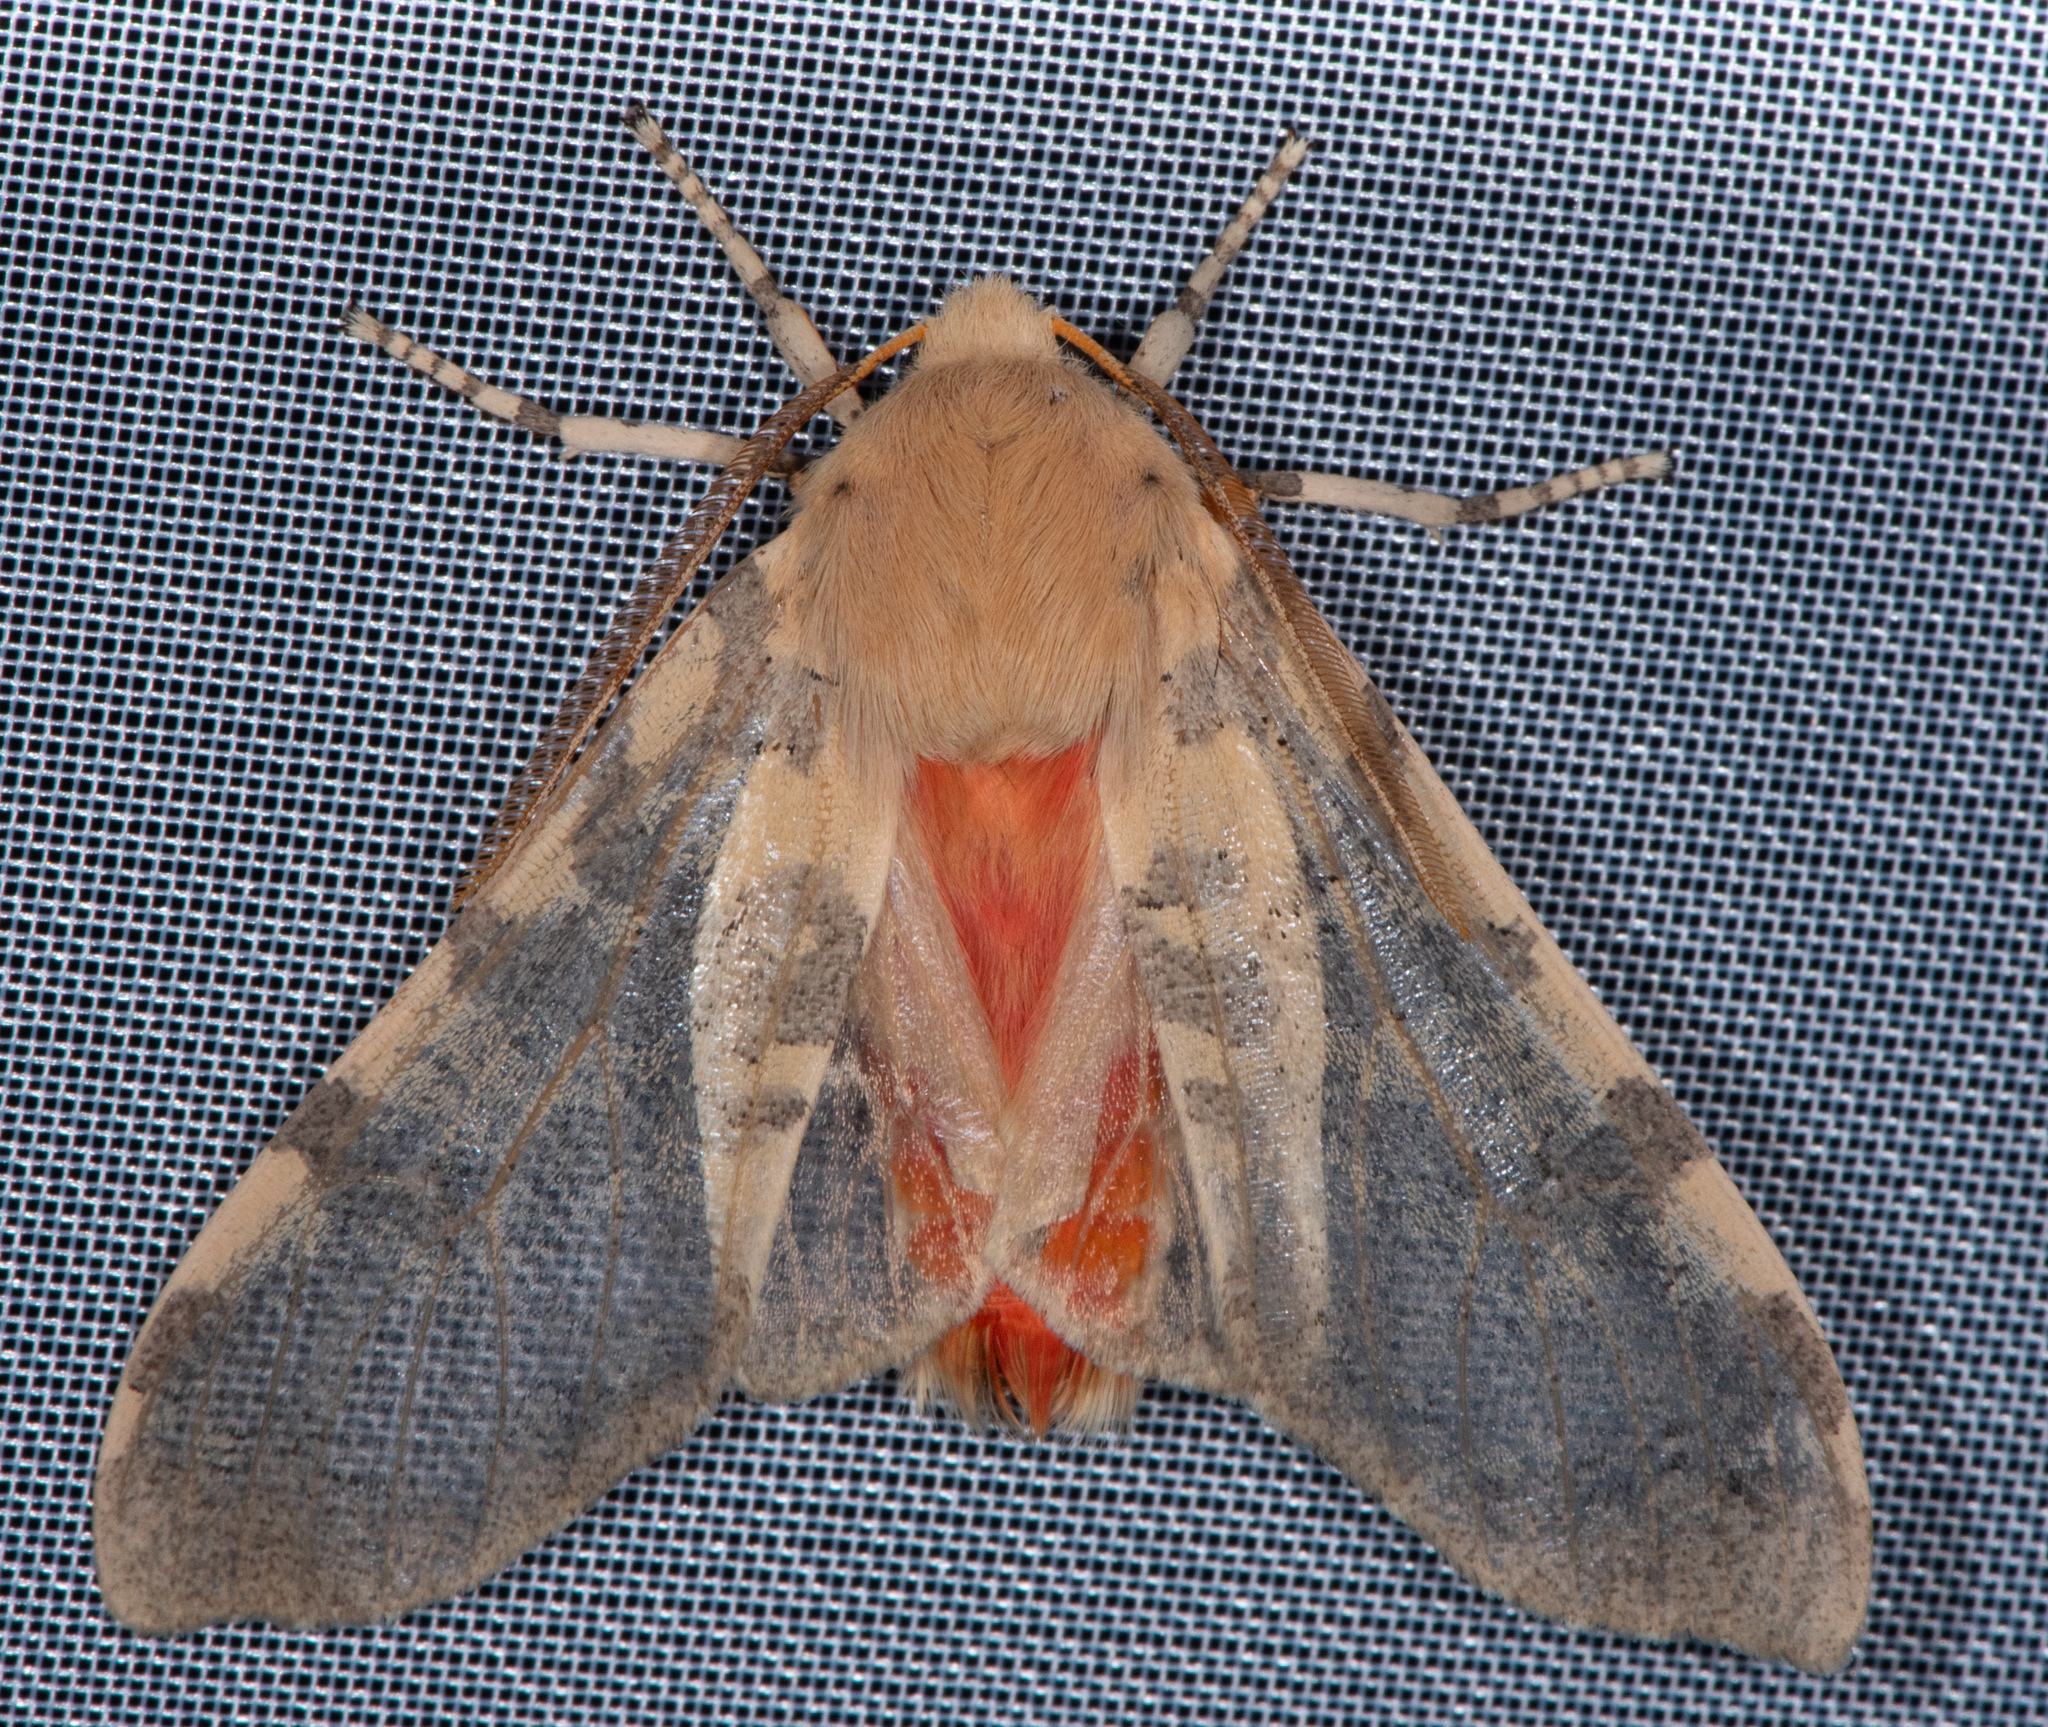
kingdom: Animalia
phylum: Arthropoda
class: Insecta
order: Lepidoptera
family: Erebidae
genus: Hemihyalea
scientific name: Hemihyalea edwardsii
